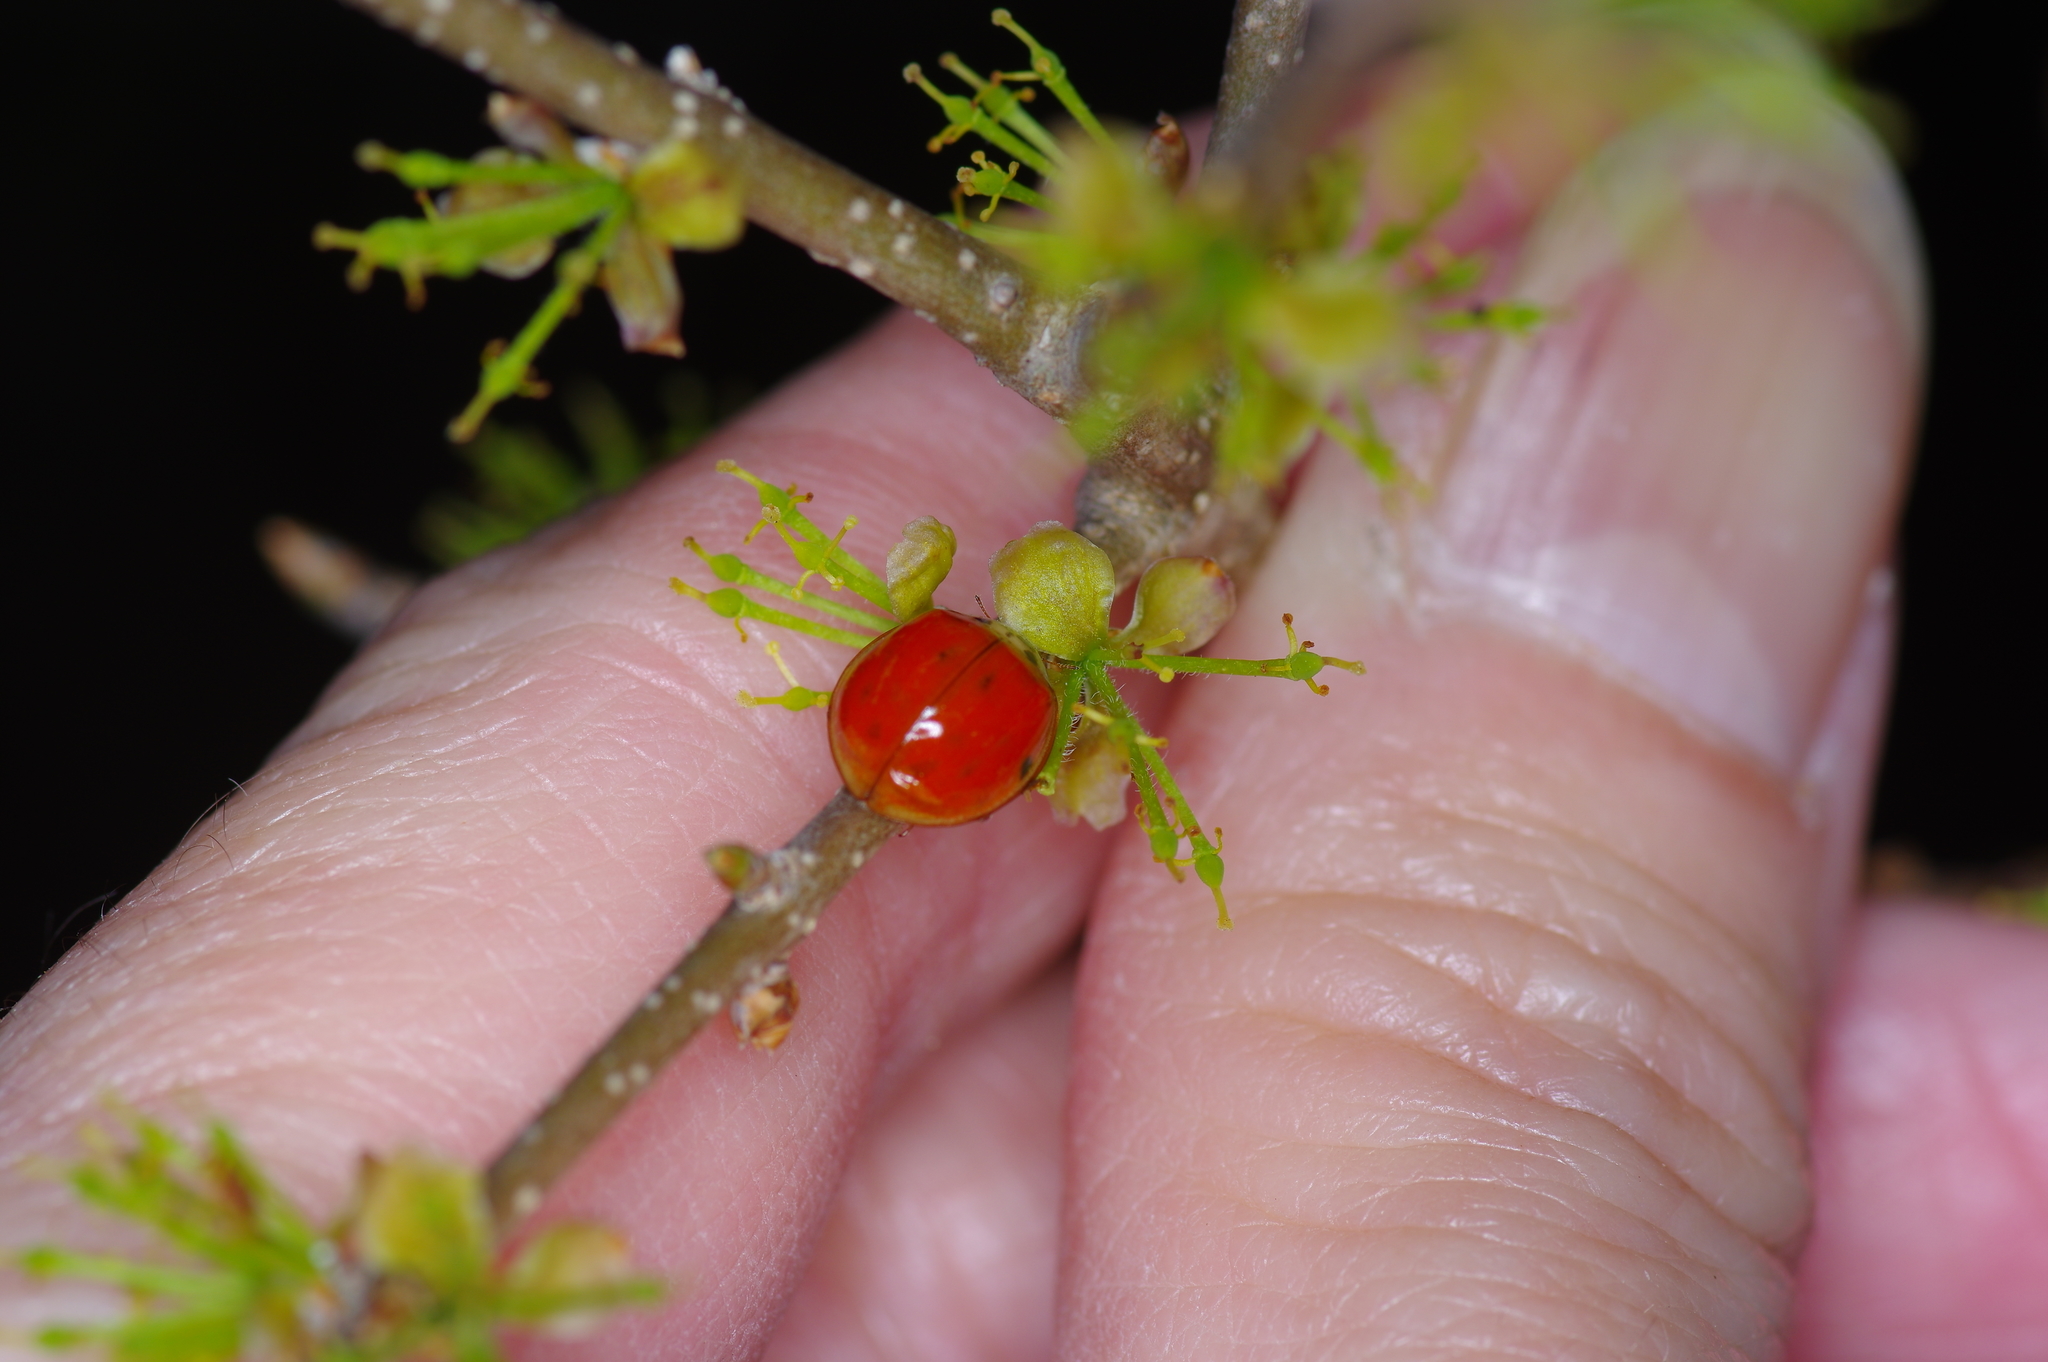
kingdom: Animalia
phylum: Arthropoda
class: Insecta
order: Coleoptera
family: Coccinellidae
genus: Harmonia
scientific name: Harmonia axyridis
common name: Harlequin ladybird
